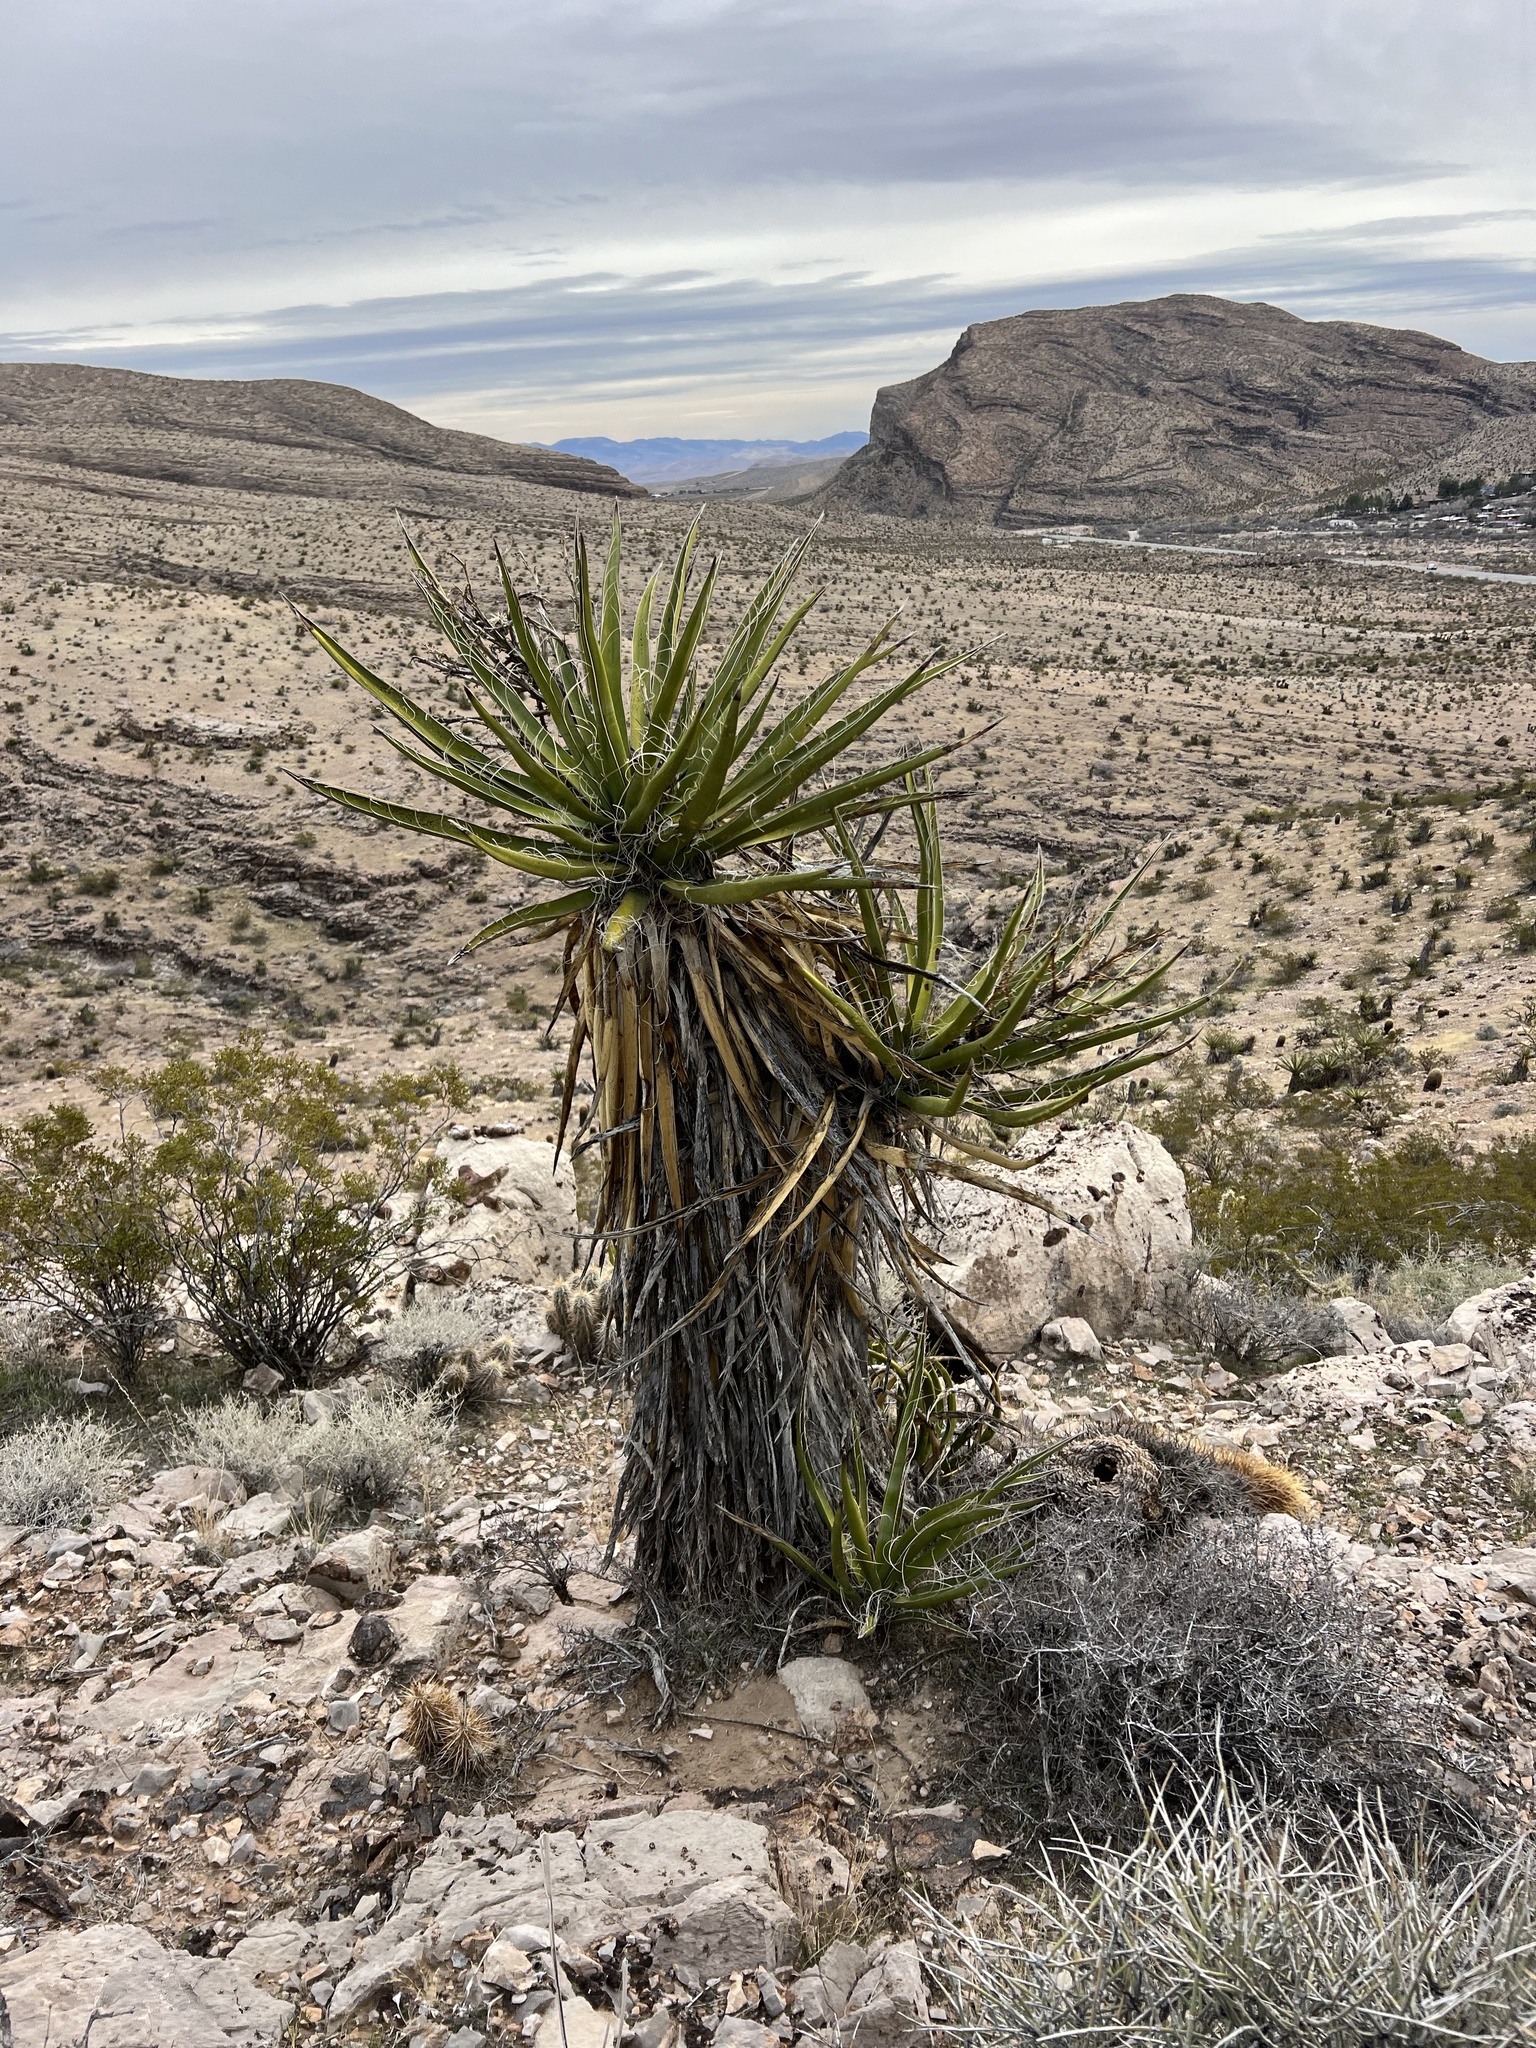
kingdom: Plantae
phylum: Tracheophyta
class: Liliopsida
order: Asparagales
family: Asparagaceae
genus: Yucca
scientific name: Yucca schidigera
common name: Mojave yucca
